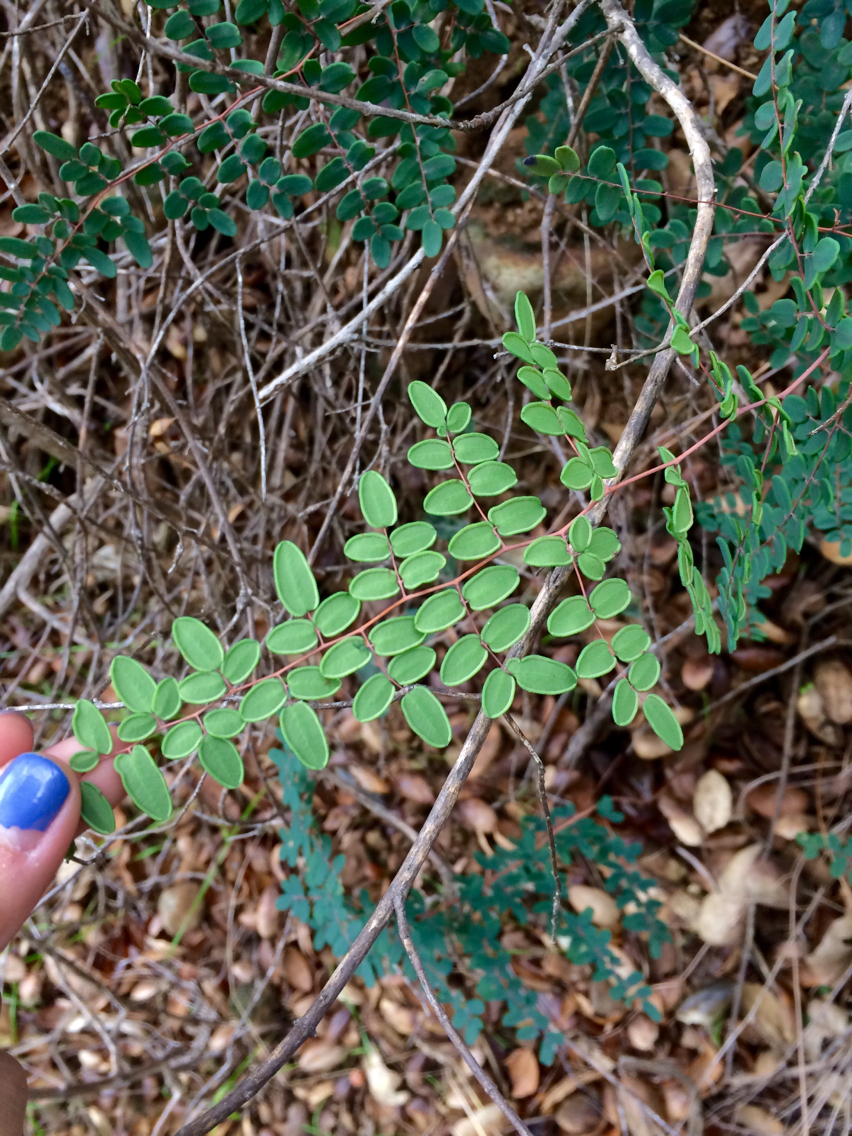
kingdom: Plantae
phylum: Tracheophyta
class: Polypodiopsida
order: Polypodiales
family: Pteridaceae
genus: Pellaea
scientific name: Pellaea andromedifolia
